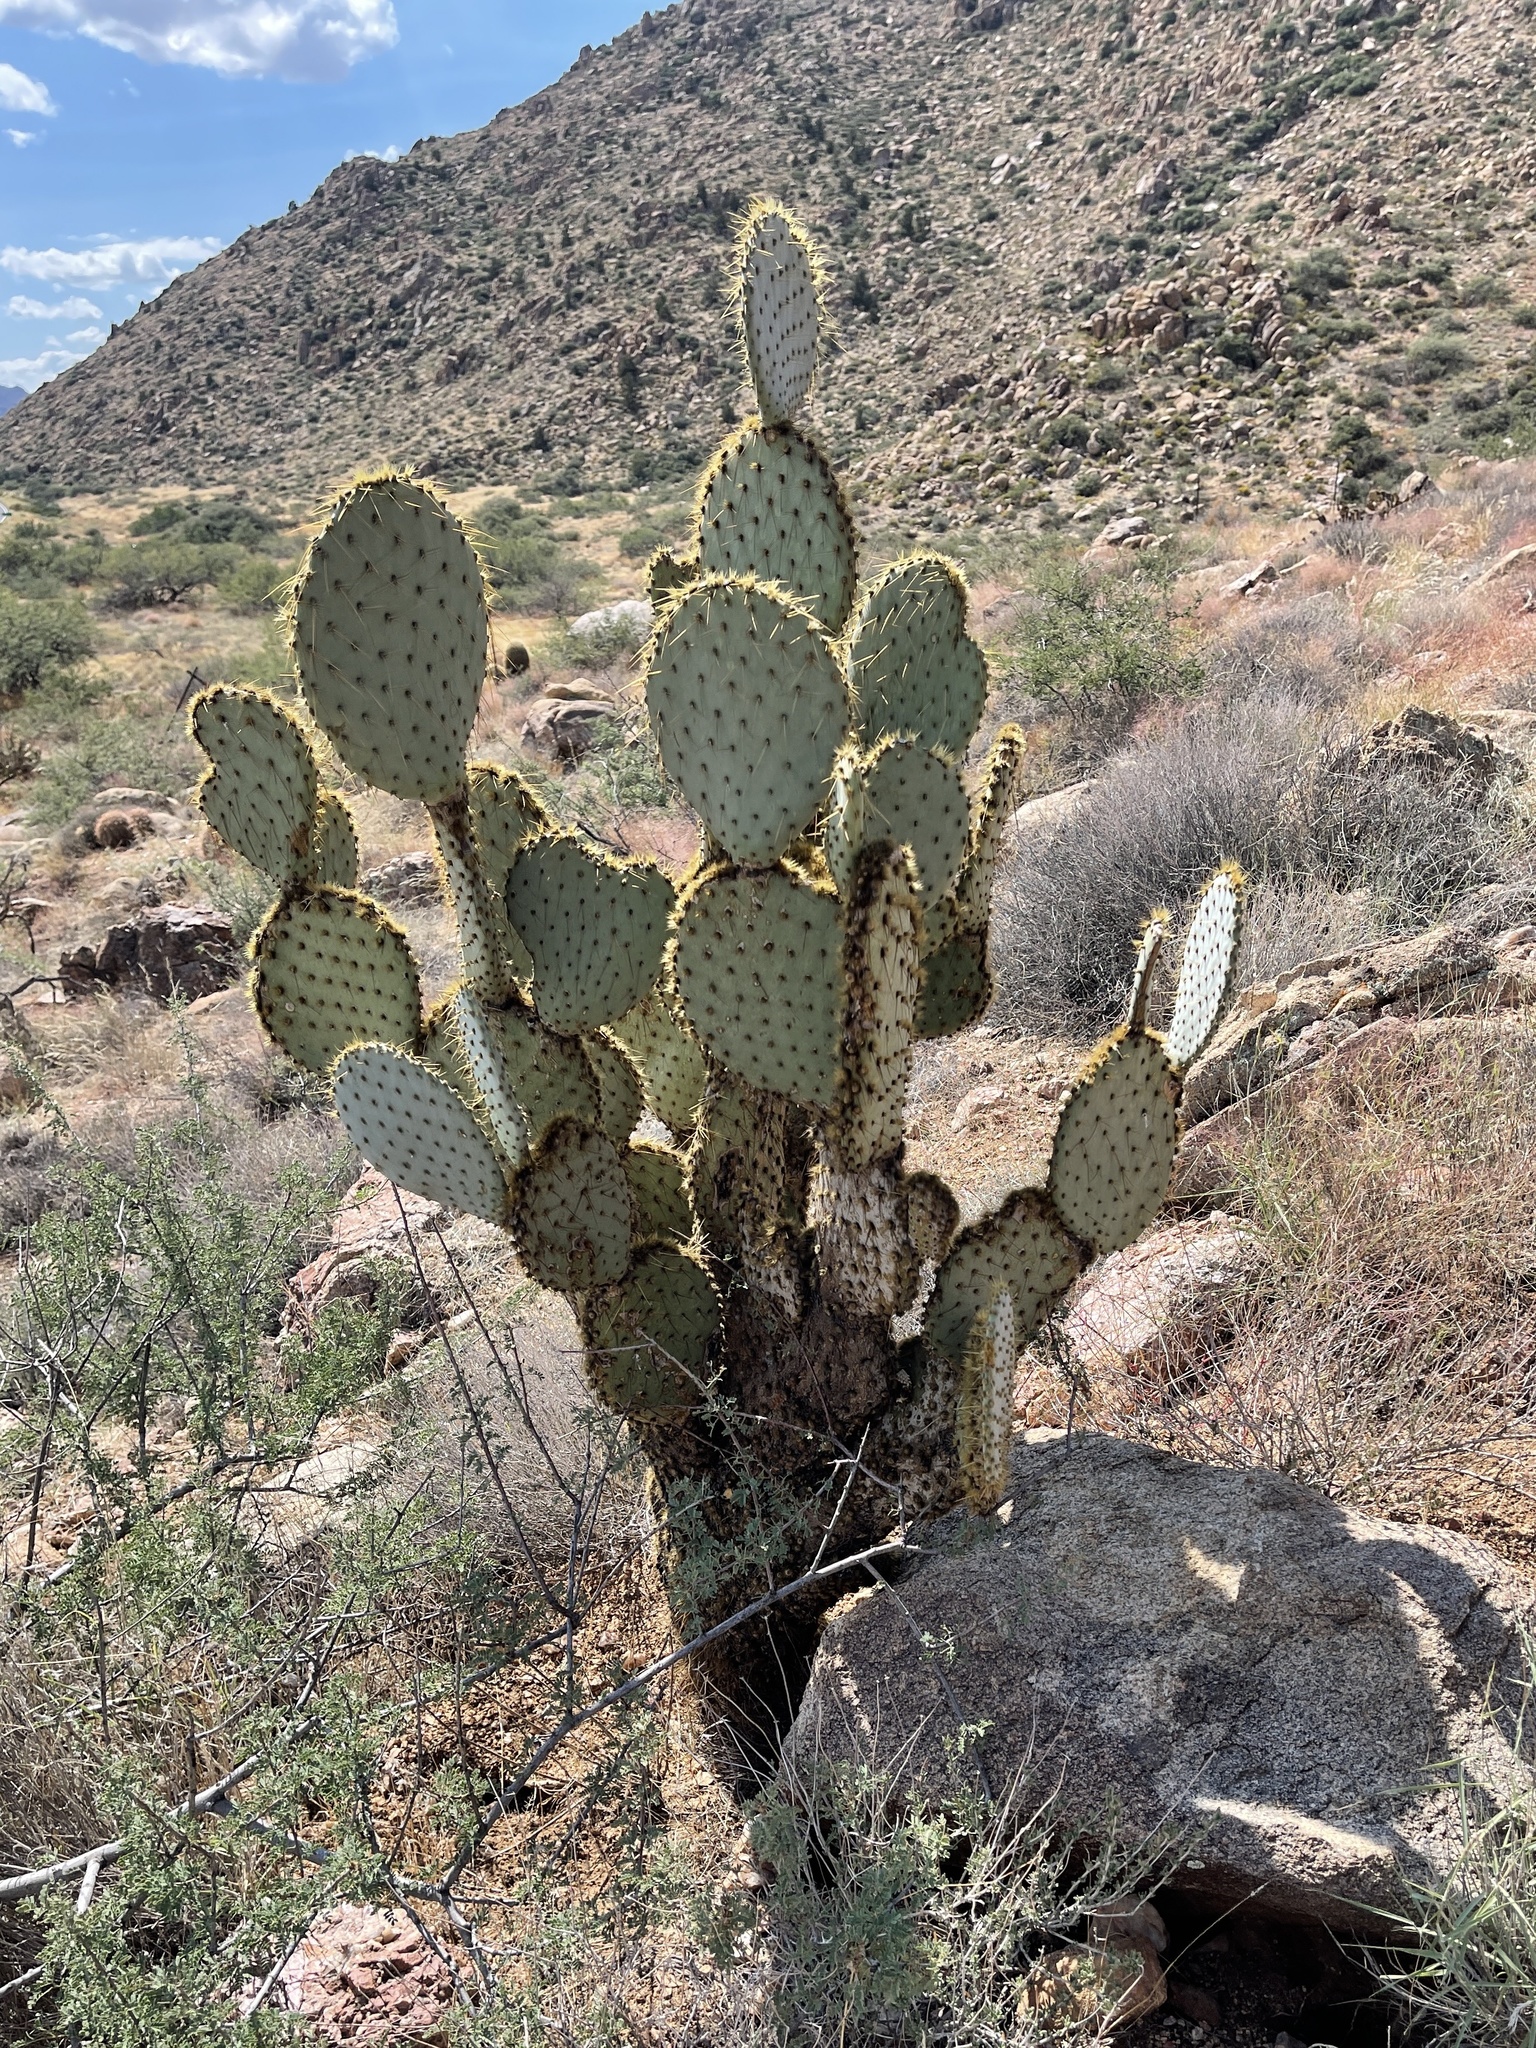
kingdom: Plantae
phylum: Tracheophyta
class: Magnoliopsida
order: Caryophyllales
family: Cactaceae
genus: Opuntia
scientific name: Opuntia chlorotica
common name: Dollar-joint prickly-pear
